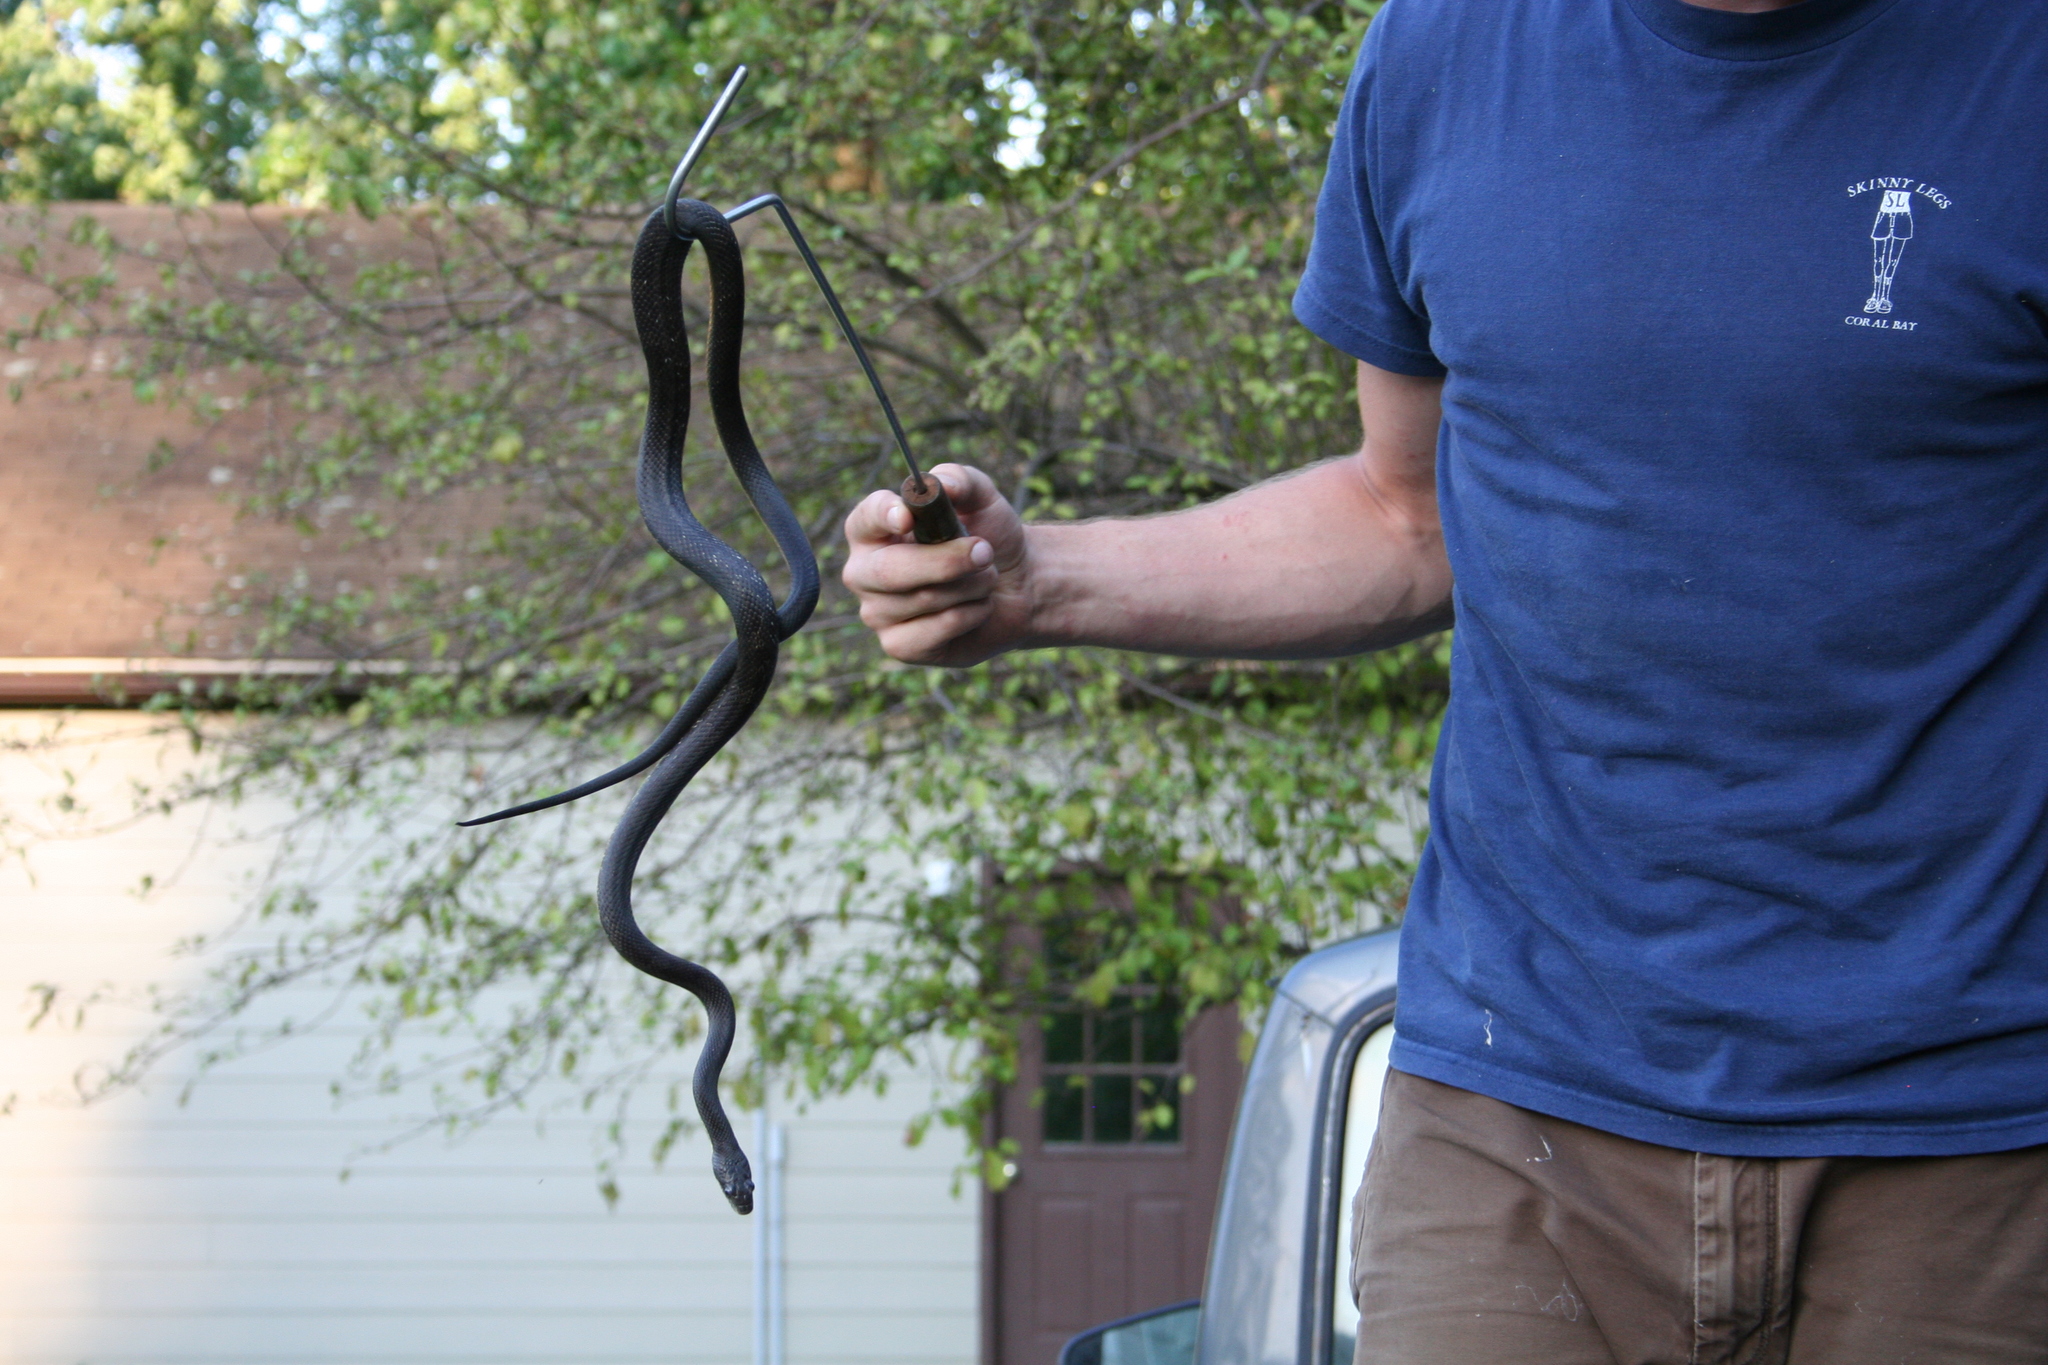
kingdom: Animalia
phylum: Chordata
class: Squamata
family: Colubridae
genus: Pantherophis
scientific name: Pantherophis alleghaniensis
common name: Eastern rat snake
